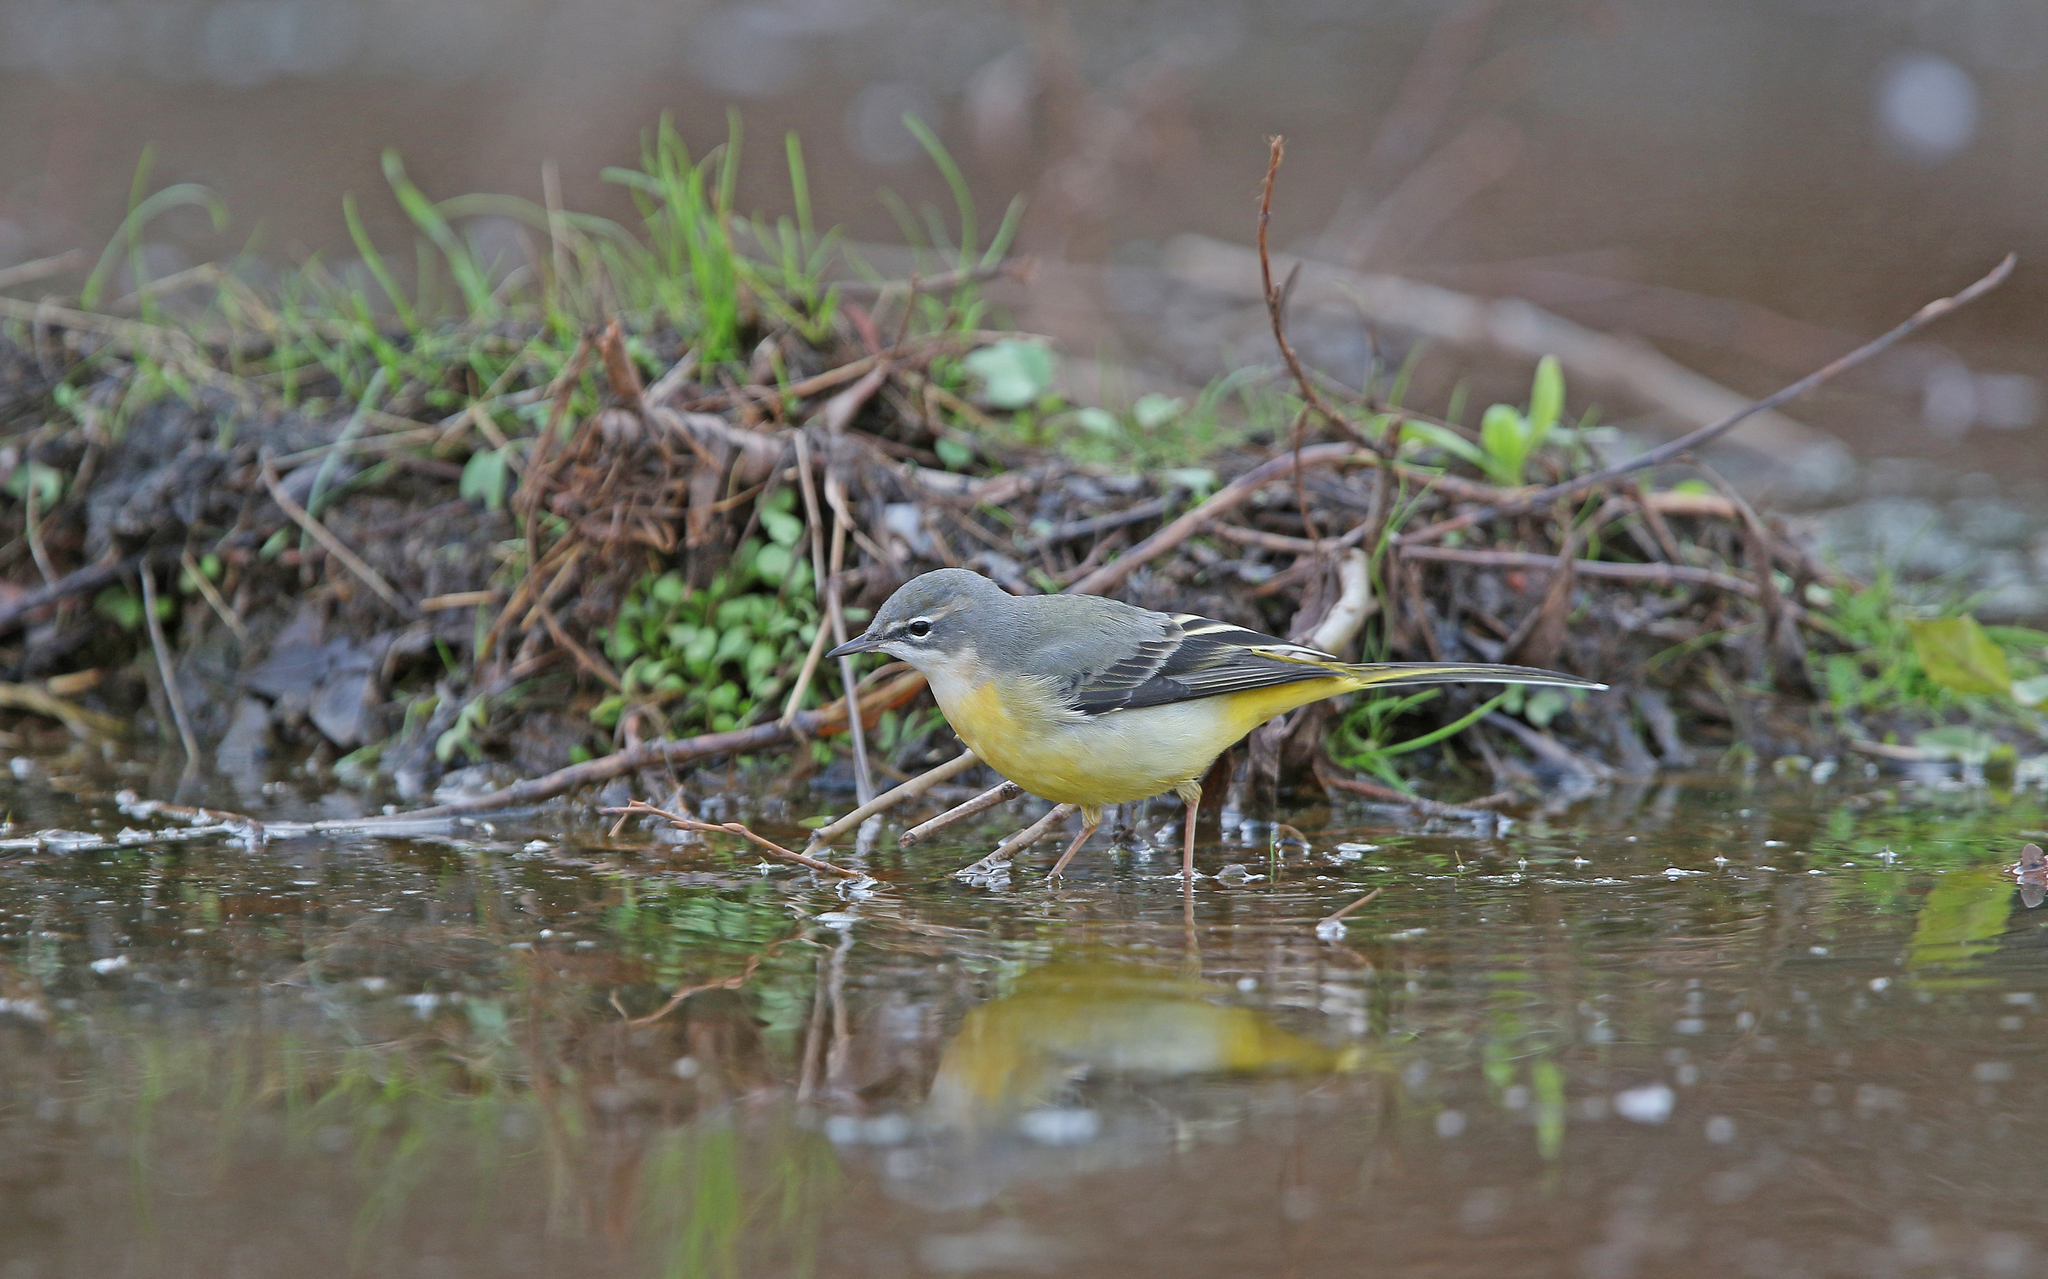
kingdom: Animalia
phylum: Chordata
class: Aves
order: Passeriformes
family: Motacillidae
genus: Motacilla
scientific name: Motacilla cinerea
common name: Grey wagtail
